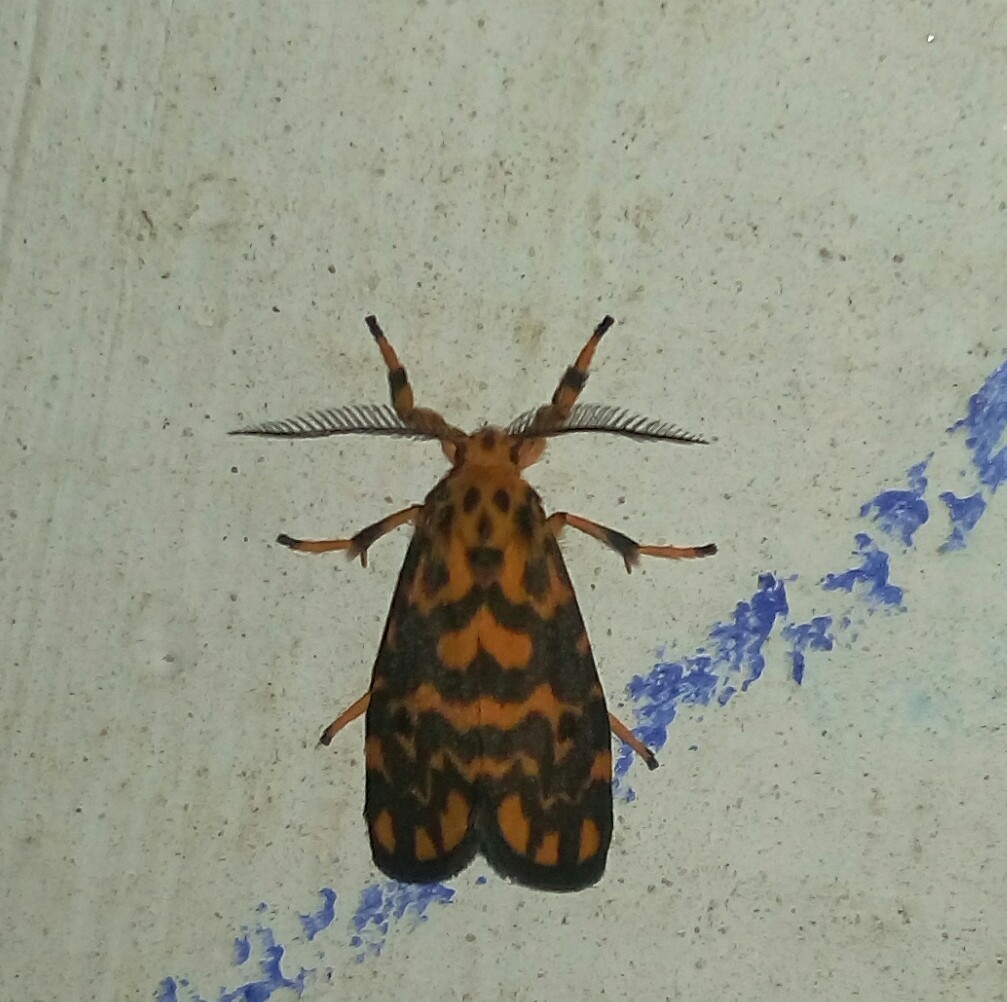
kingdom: Animalia
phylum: Arthropoda
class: Insecta
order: Lepidoptera
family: Erebidae
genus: Nepita
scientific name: Nepita conferta
